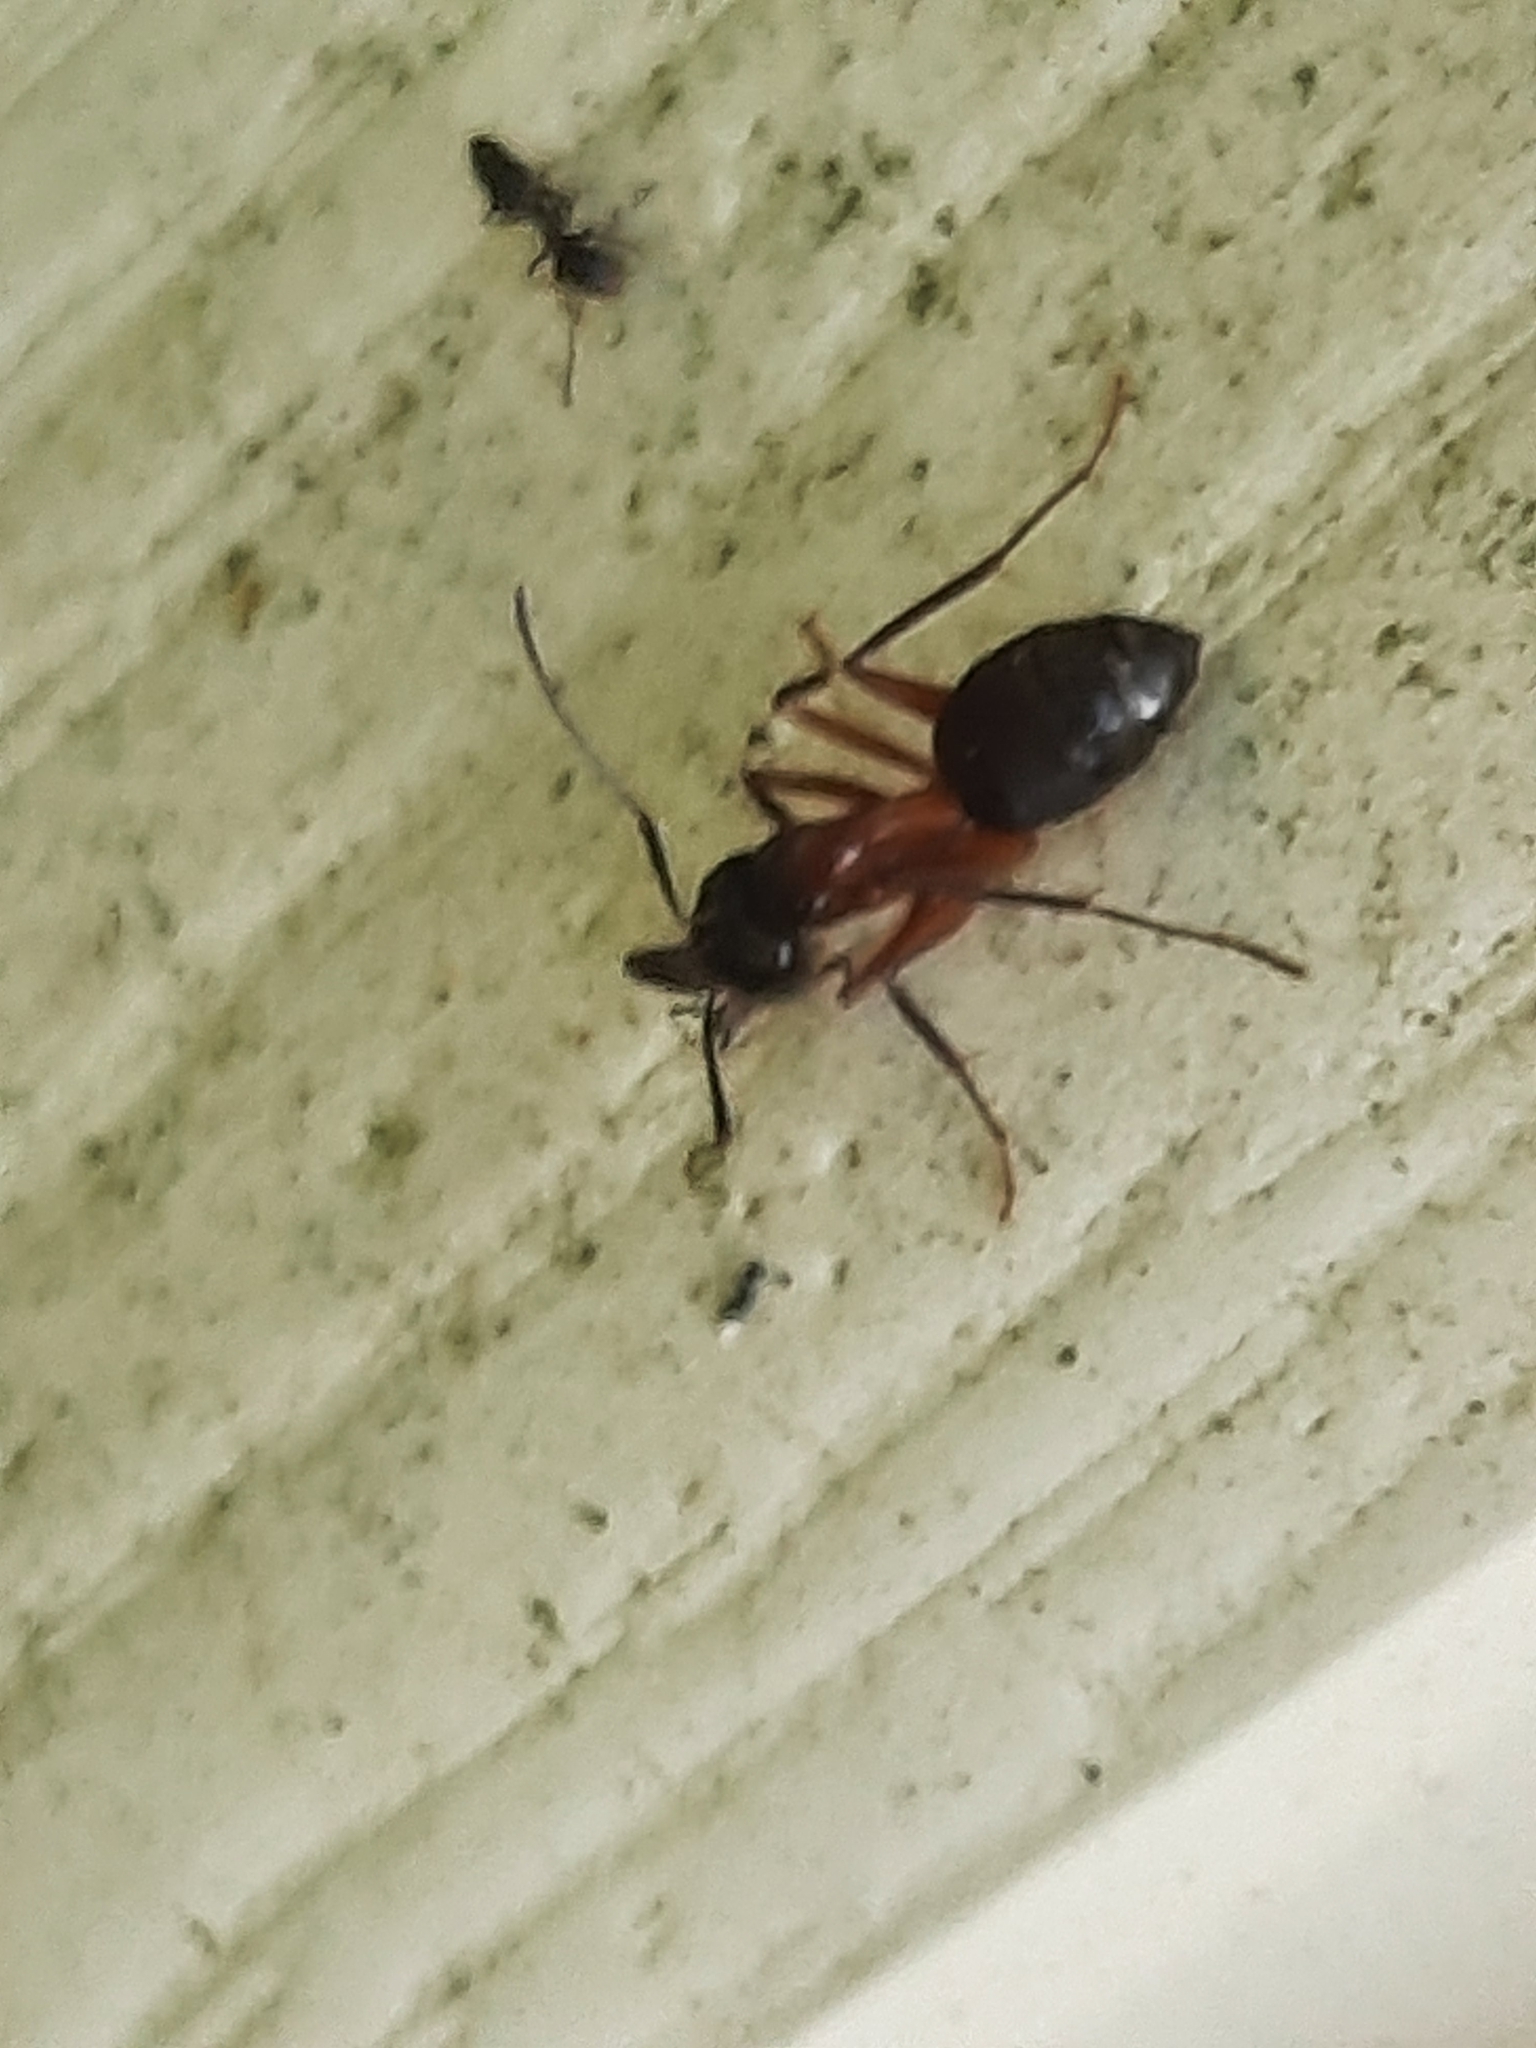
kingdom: Animalia
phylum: Arthropoda
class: Insecta
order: Hymenoptera
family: Formicidae
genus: Camponotus
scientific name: Camponotus chromaiodes
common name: Red carpenter ant
